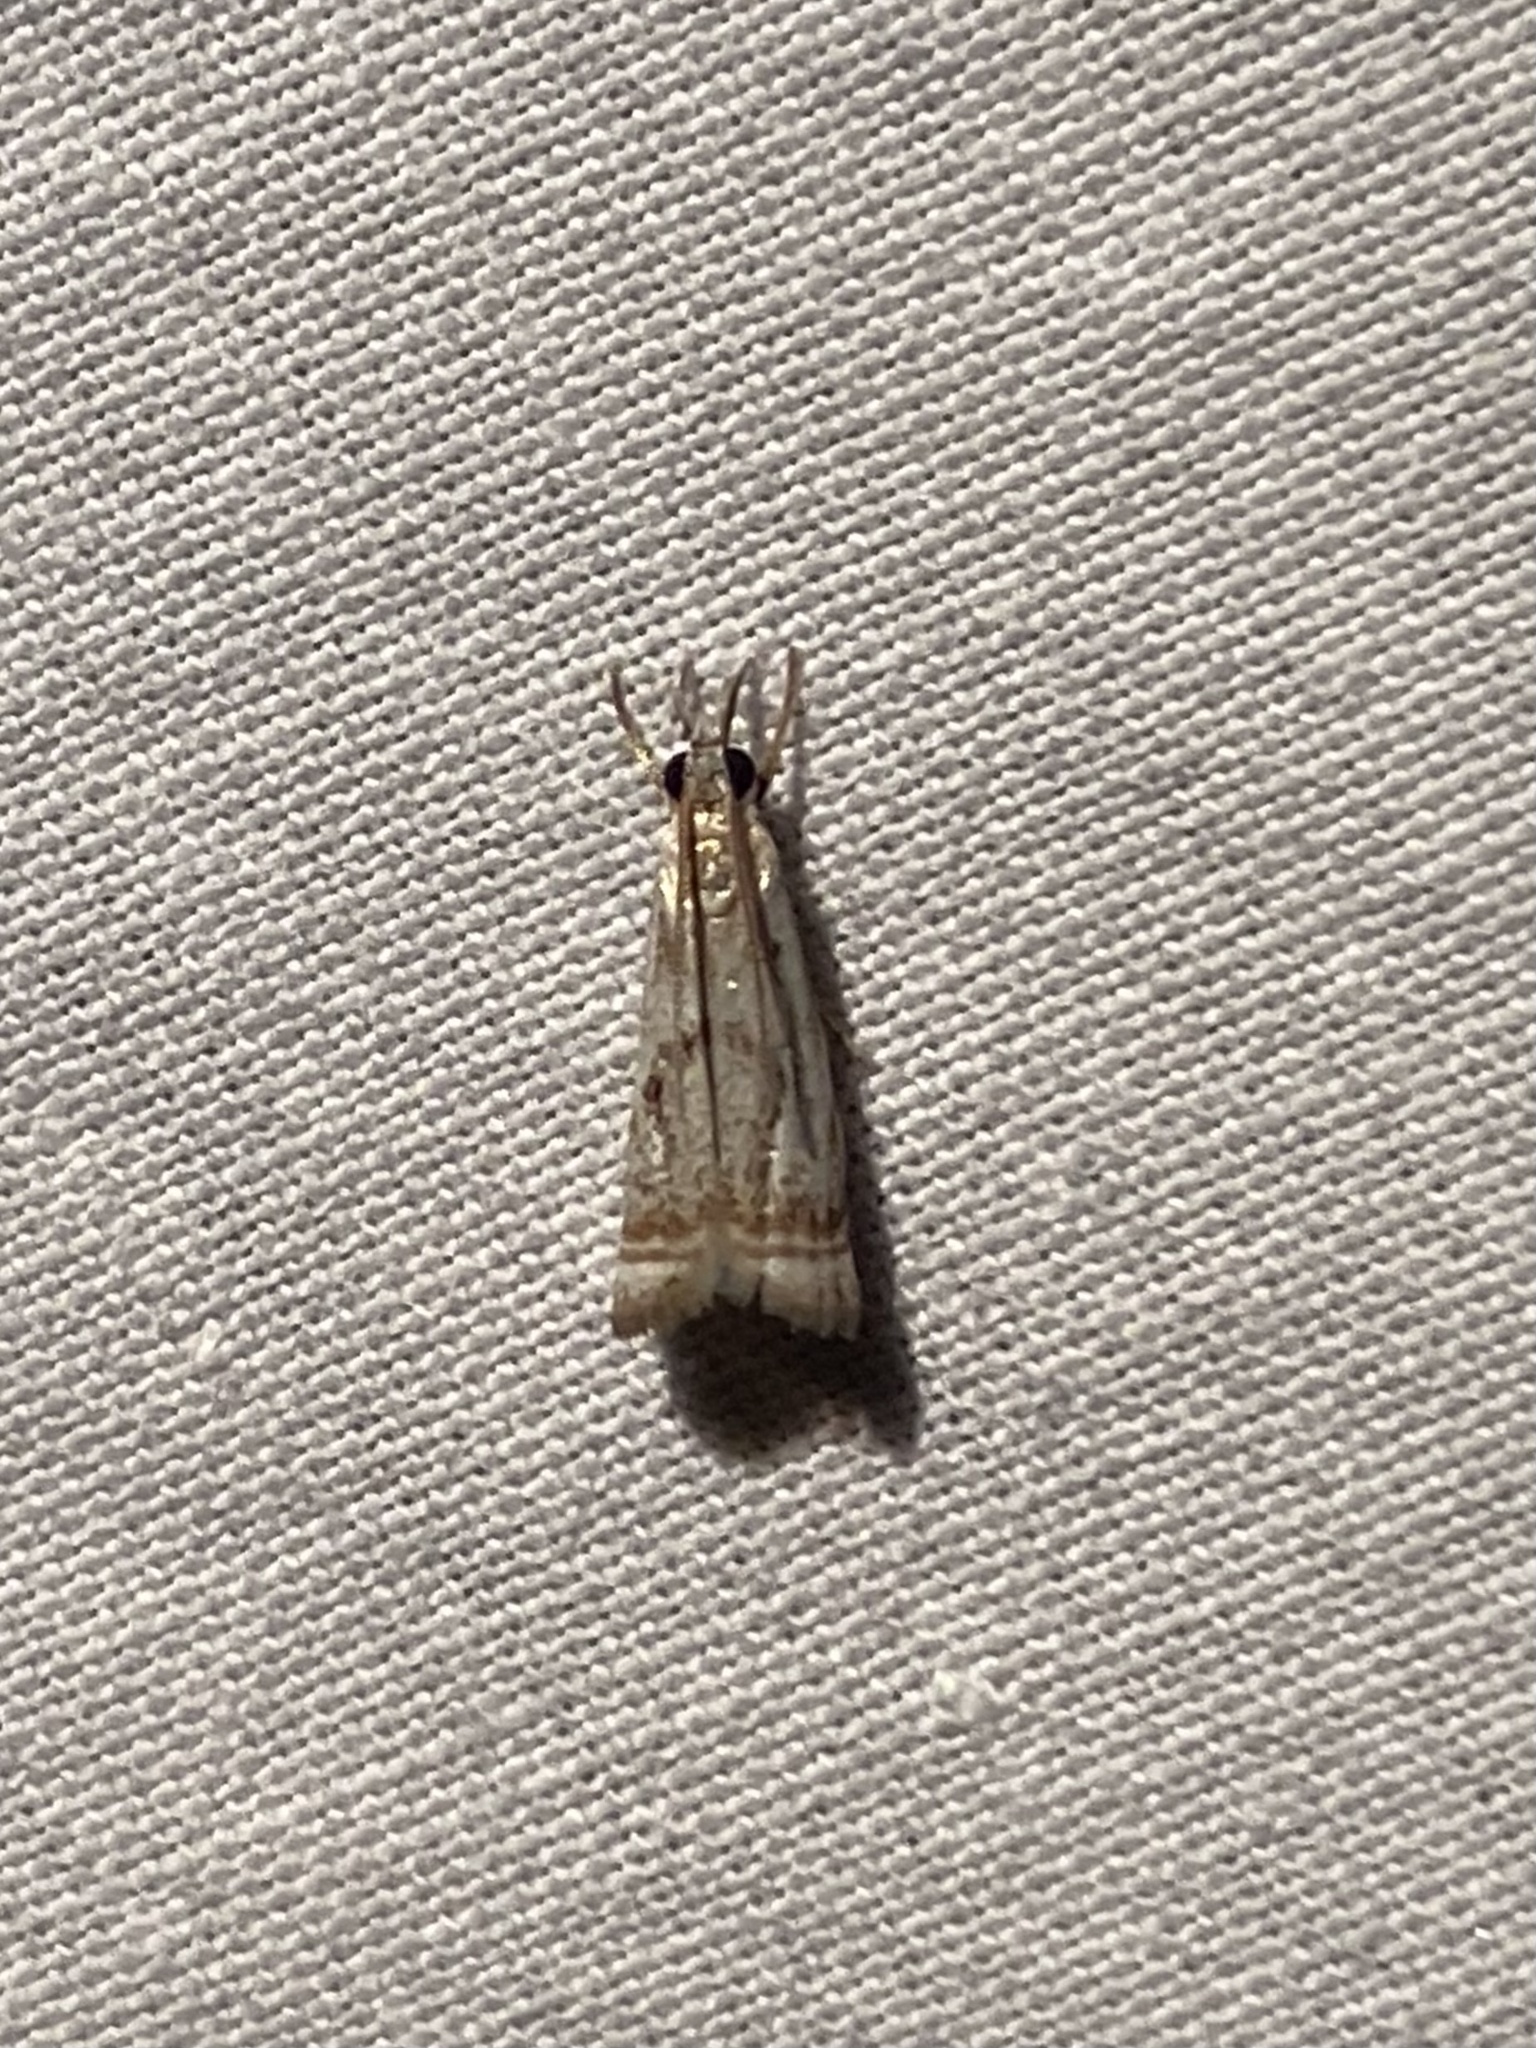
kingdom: Animalia
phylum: Arthropoda
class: Insecta
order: Lepidoptera
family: Crambidae
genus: Microcrambus
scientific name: Microcrambus elegans
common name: Elegant grass-veneer
